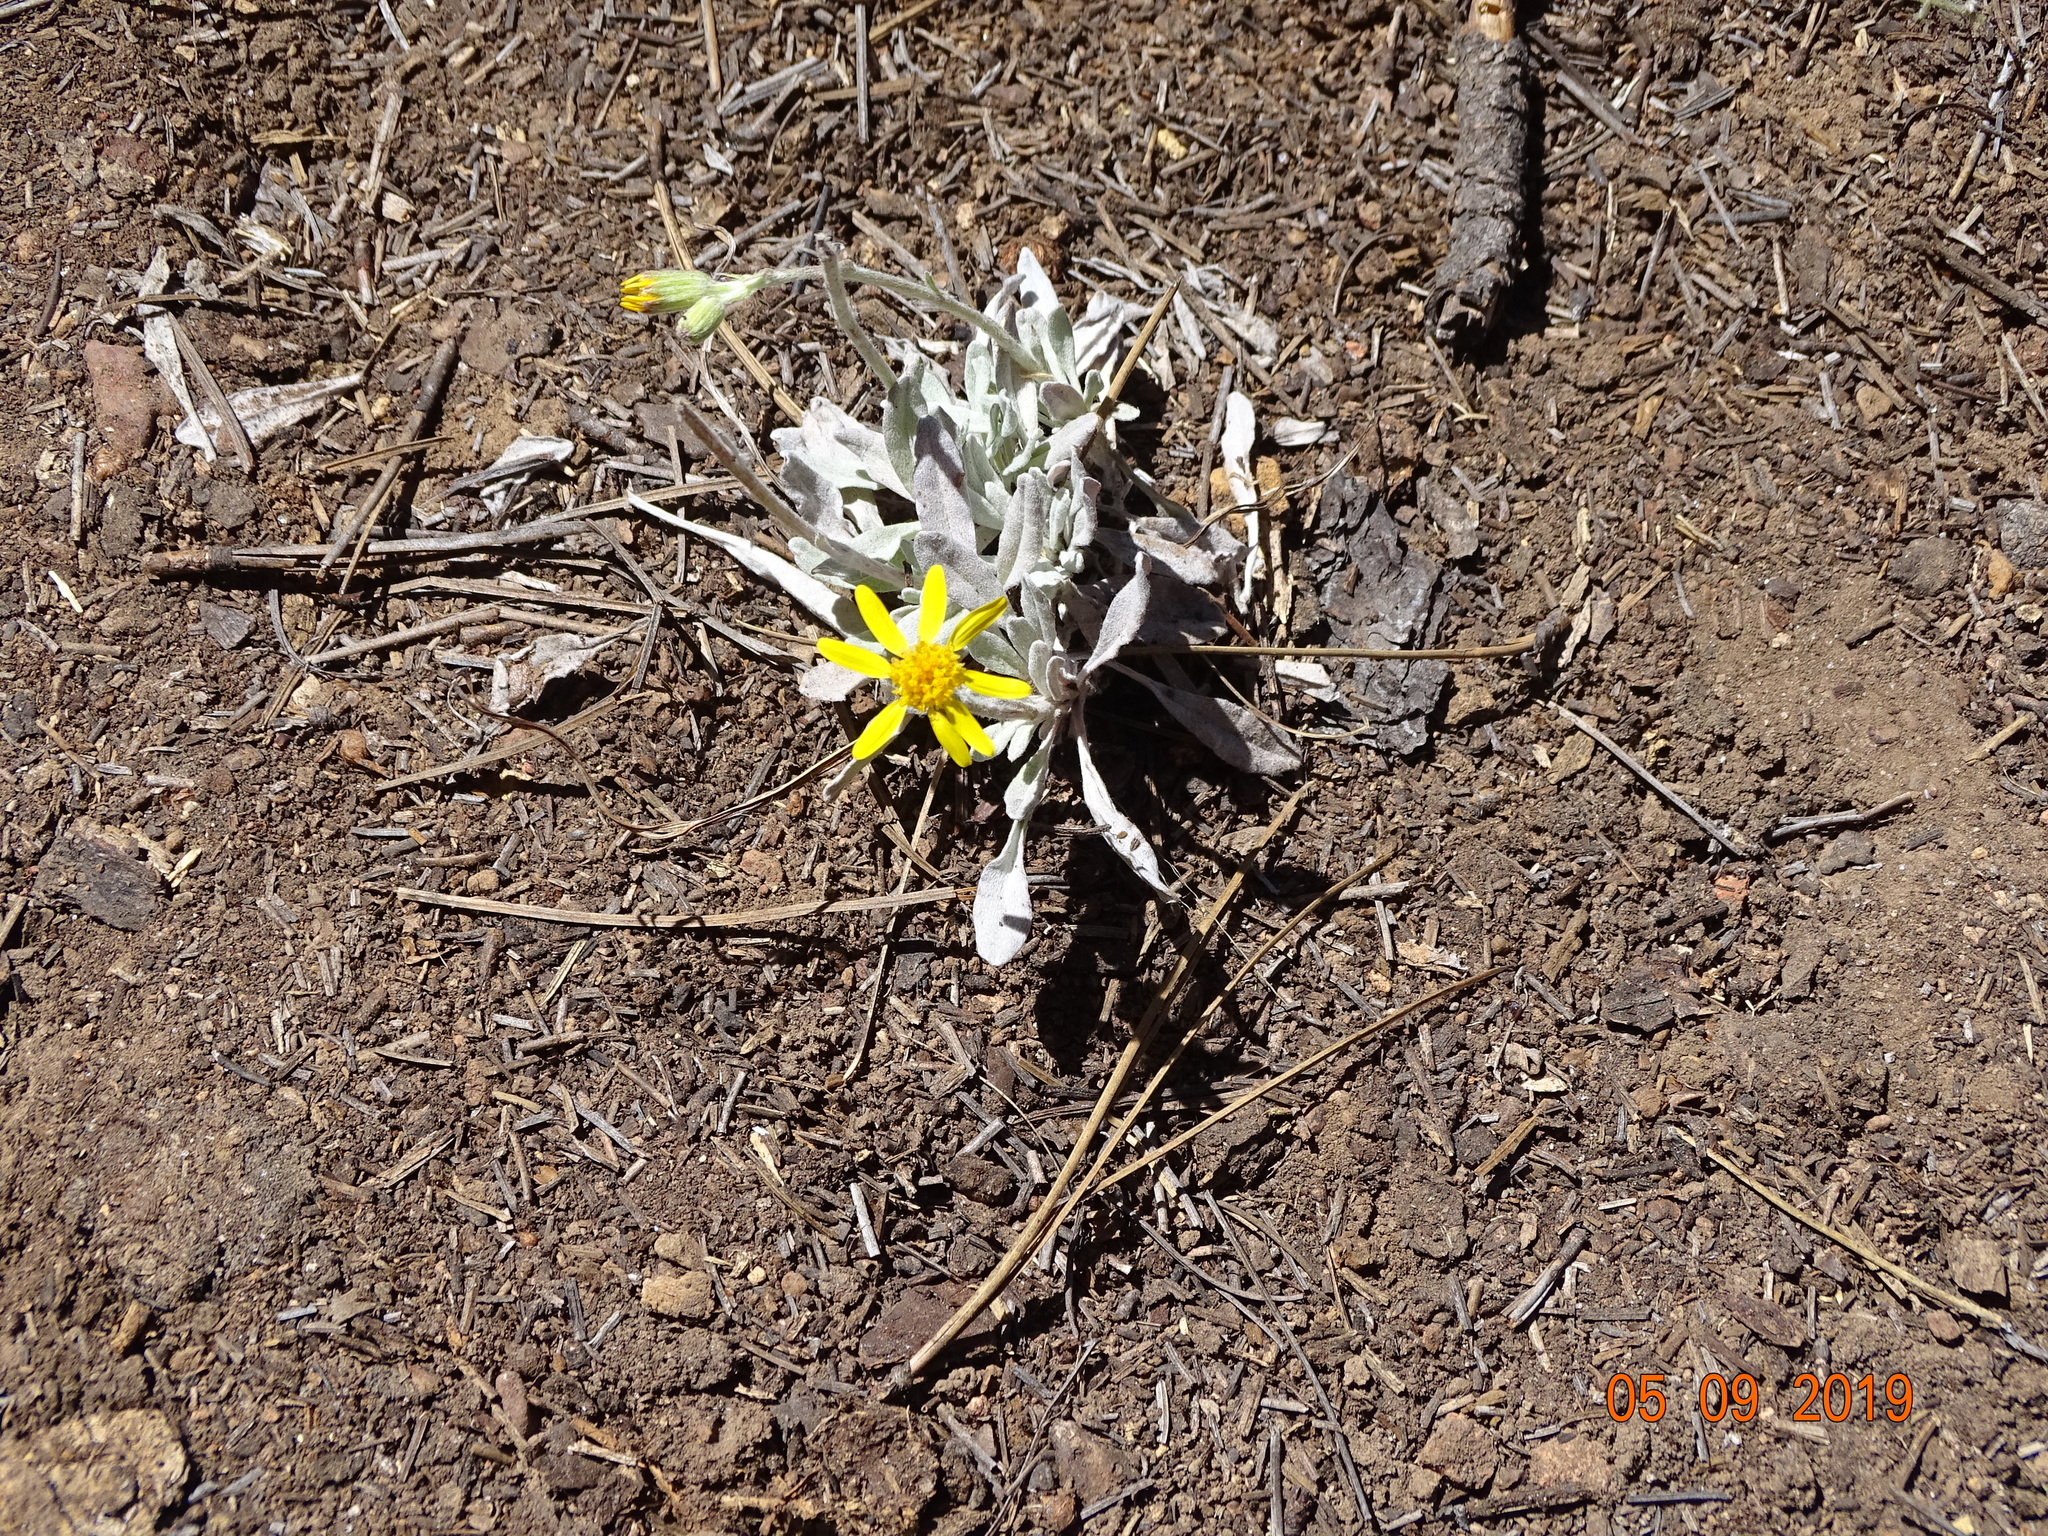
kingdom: Plantae
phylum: Tracheophyta
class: Magnoliopsida
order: Asterales
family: Asteraceae
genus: Packera
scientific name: Packera candidissima
